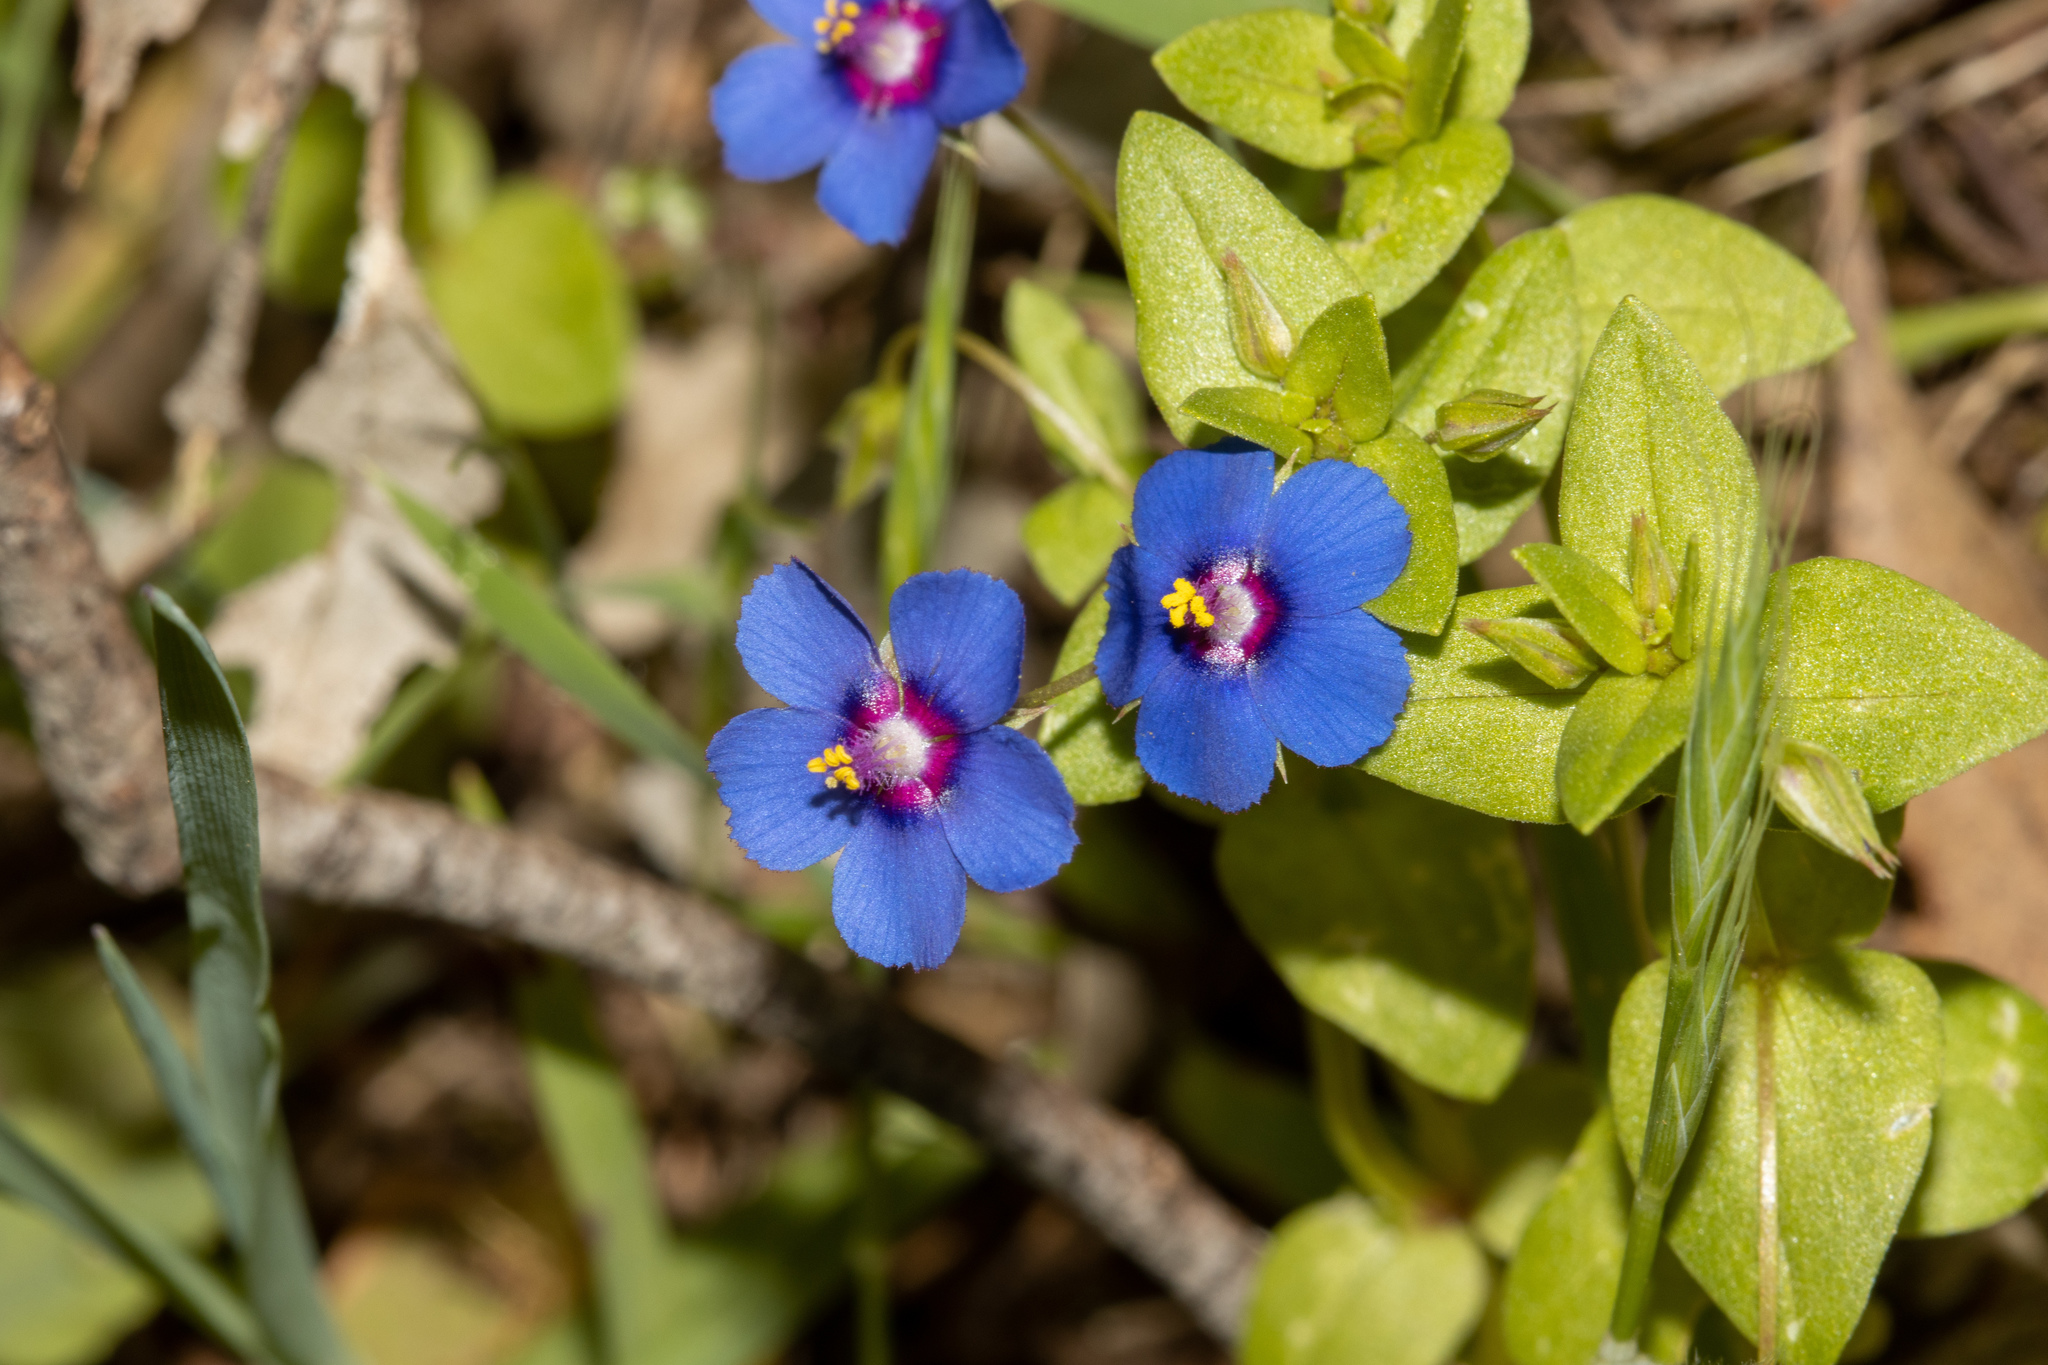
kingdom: Plantae
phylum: Tracheophyta
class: Magnoliopsida
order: Ericales
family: Primulaceae
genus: Lysimachia
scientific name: Lysimachia loeflingii
